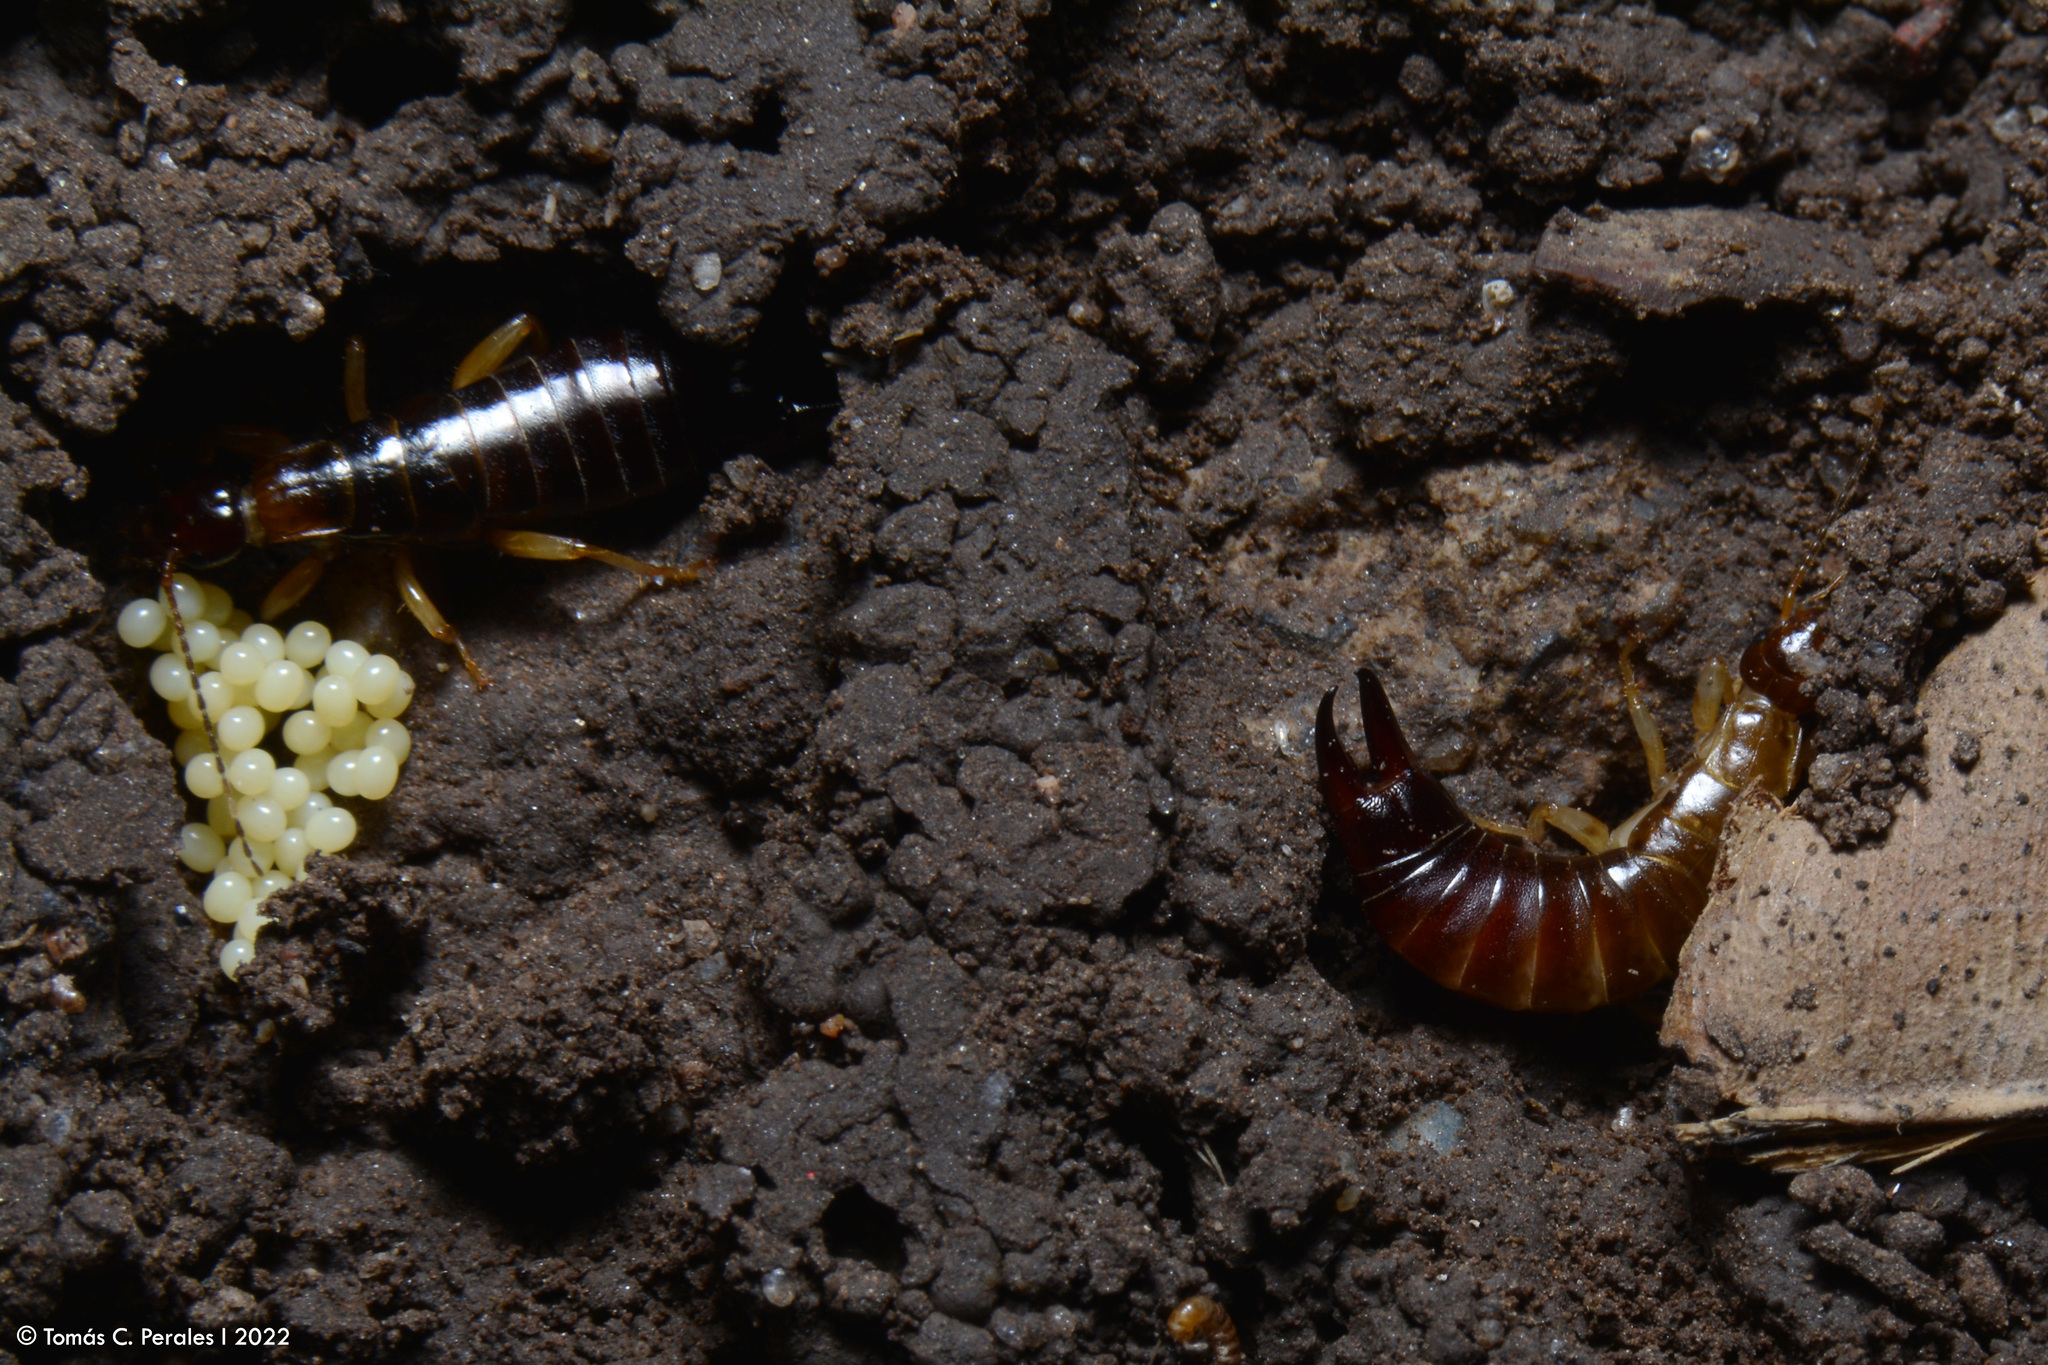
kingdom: Animalia
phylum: Arthropoda
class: Insecta
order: Dermaptera
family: Anisolabididae
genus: Euborellia
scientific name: Euborellia annulipes
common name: Ringlegged earwig
